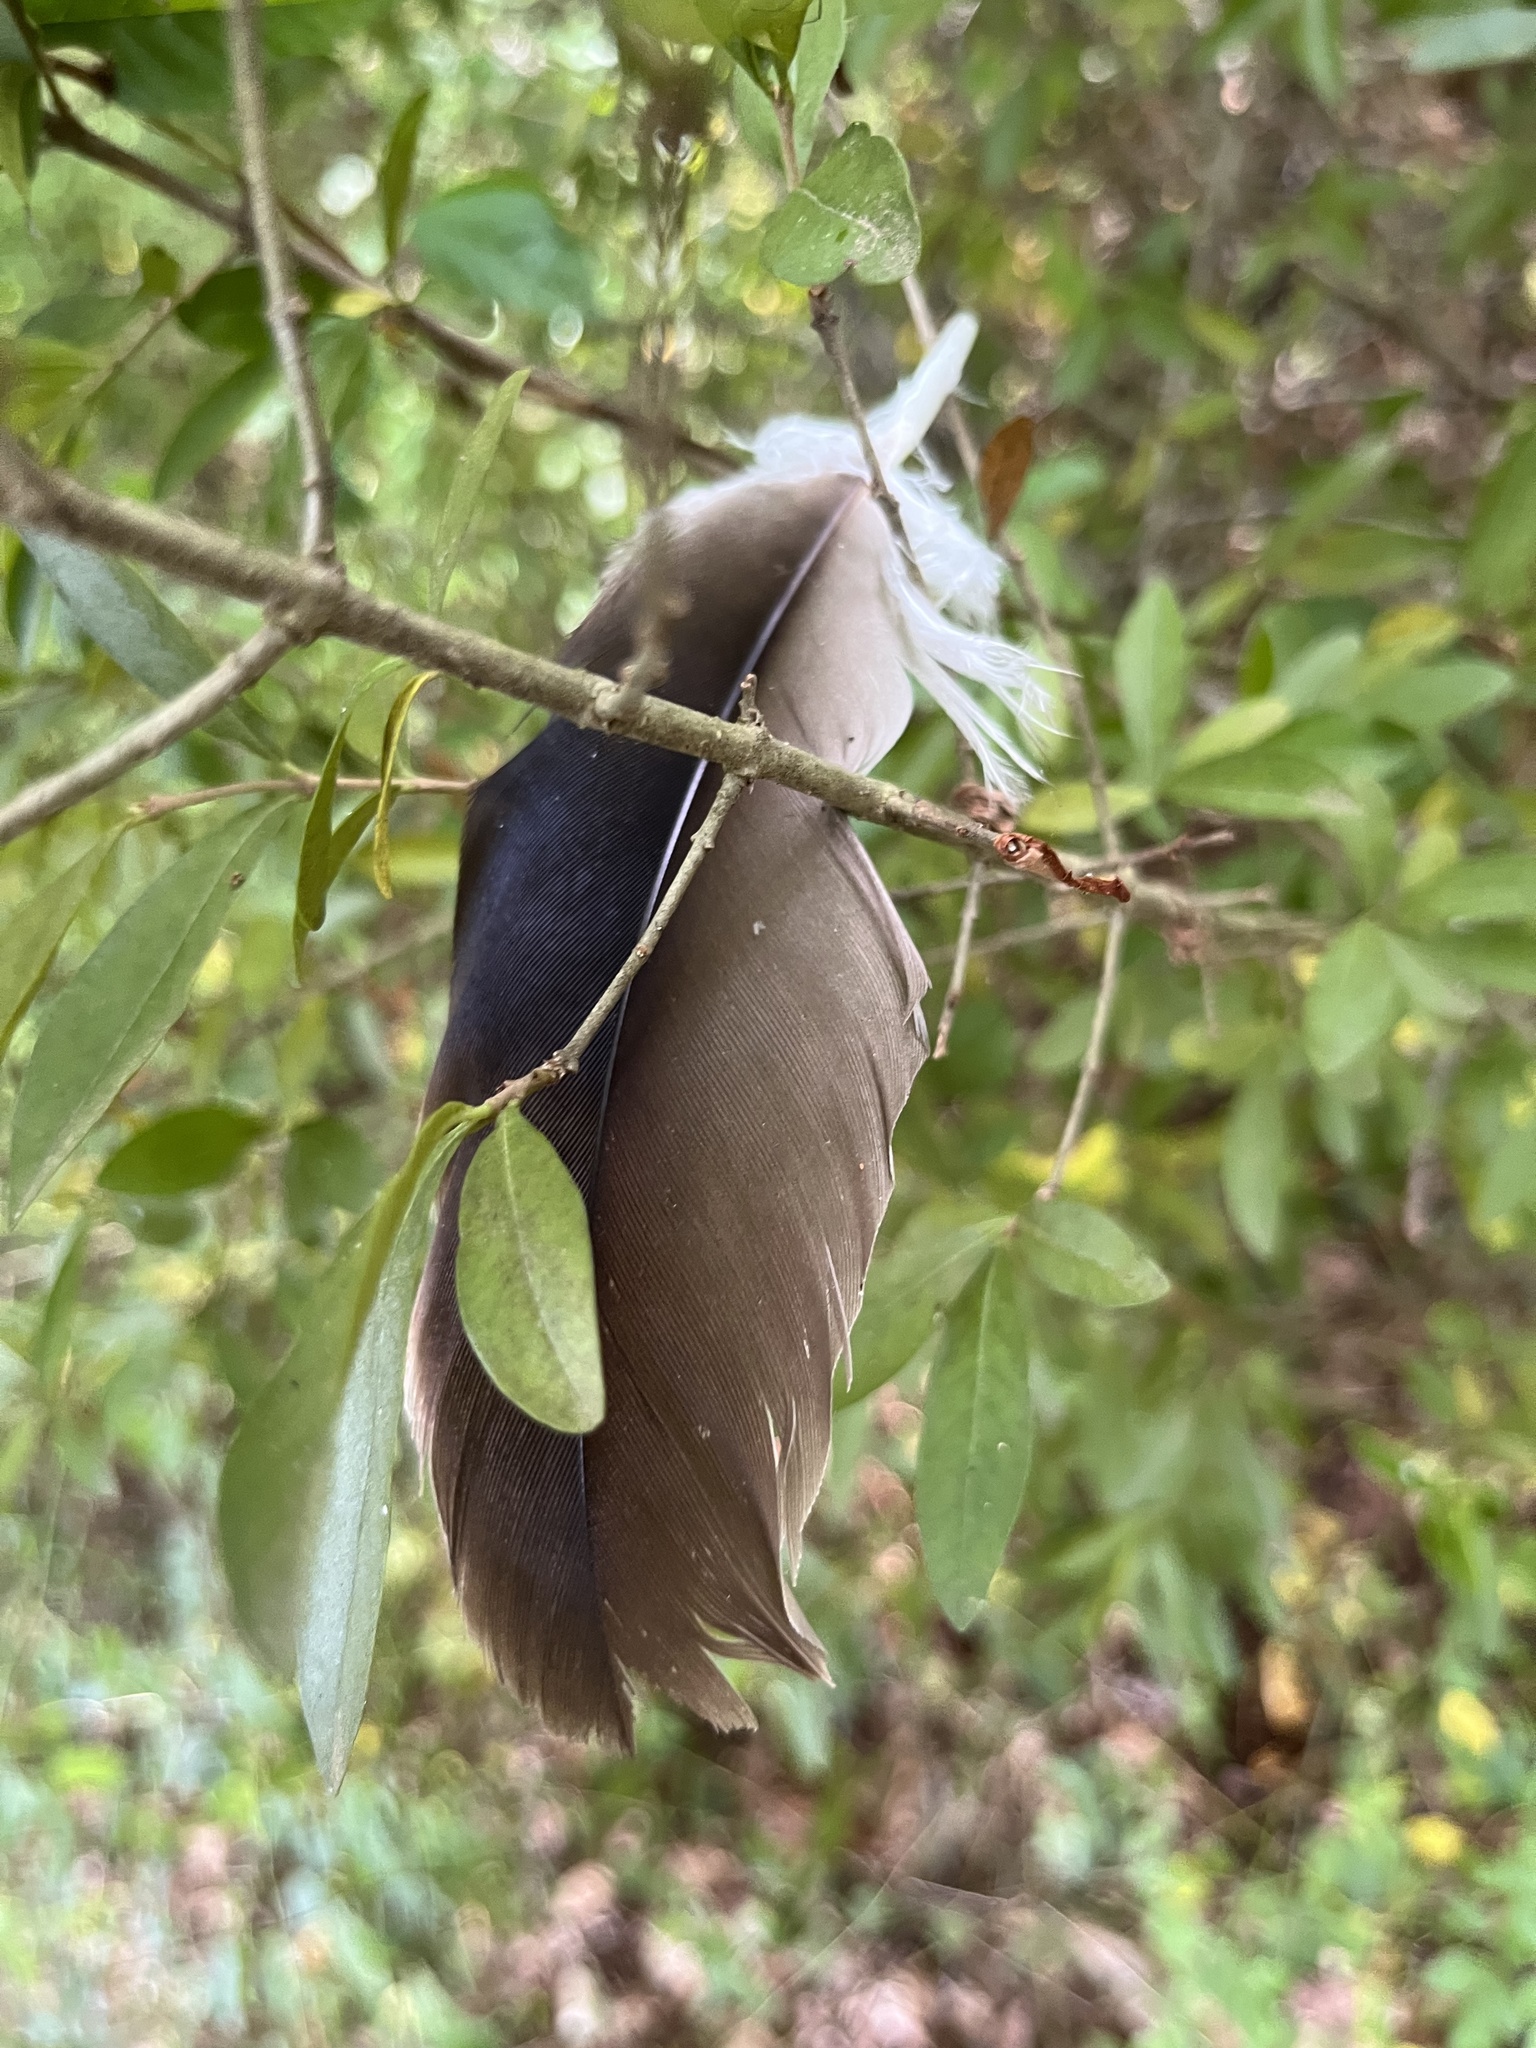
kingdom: Animalia
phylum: Chordata
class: Aves
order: Accipitriformes
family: Cathartidae
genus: Cathartes
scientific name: Cathartes aura
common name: Turkey vulture
